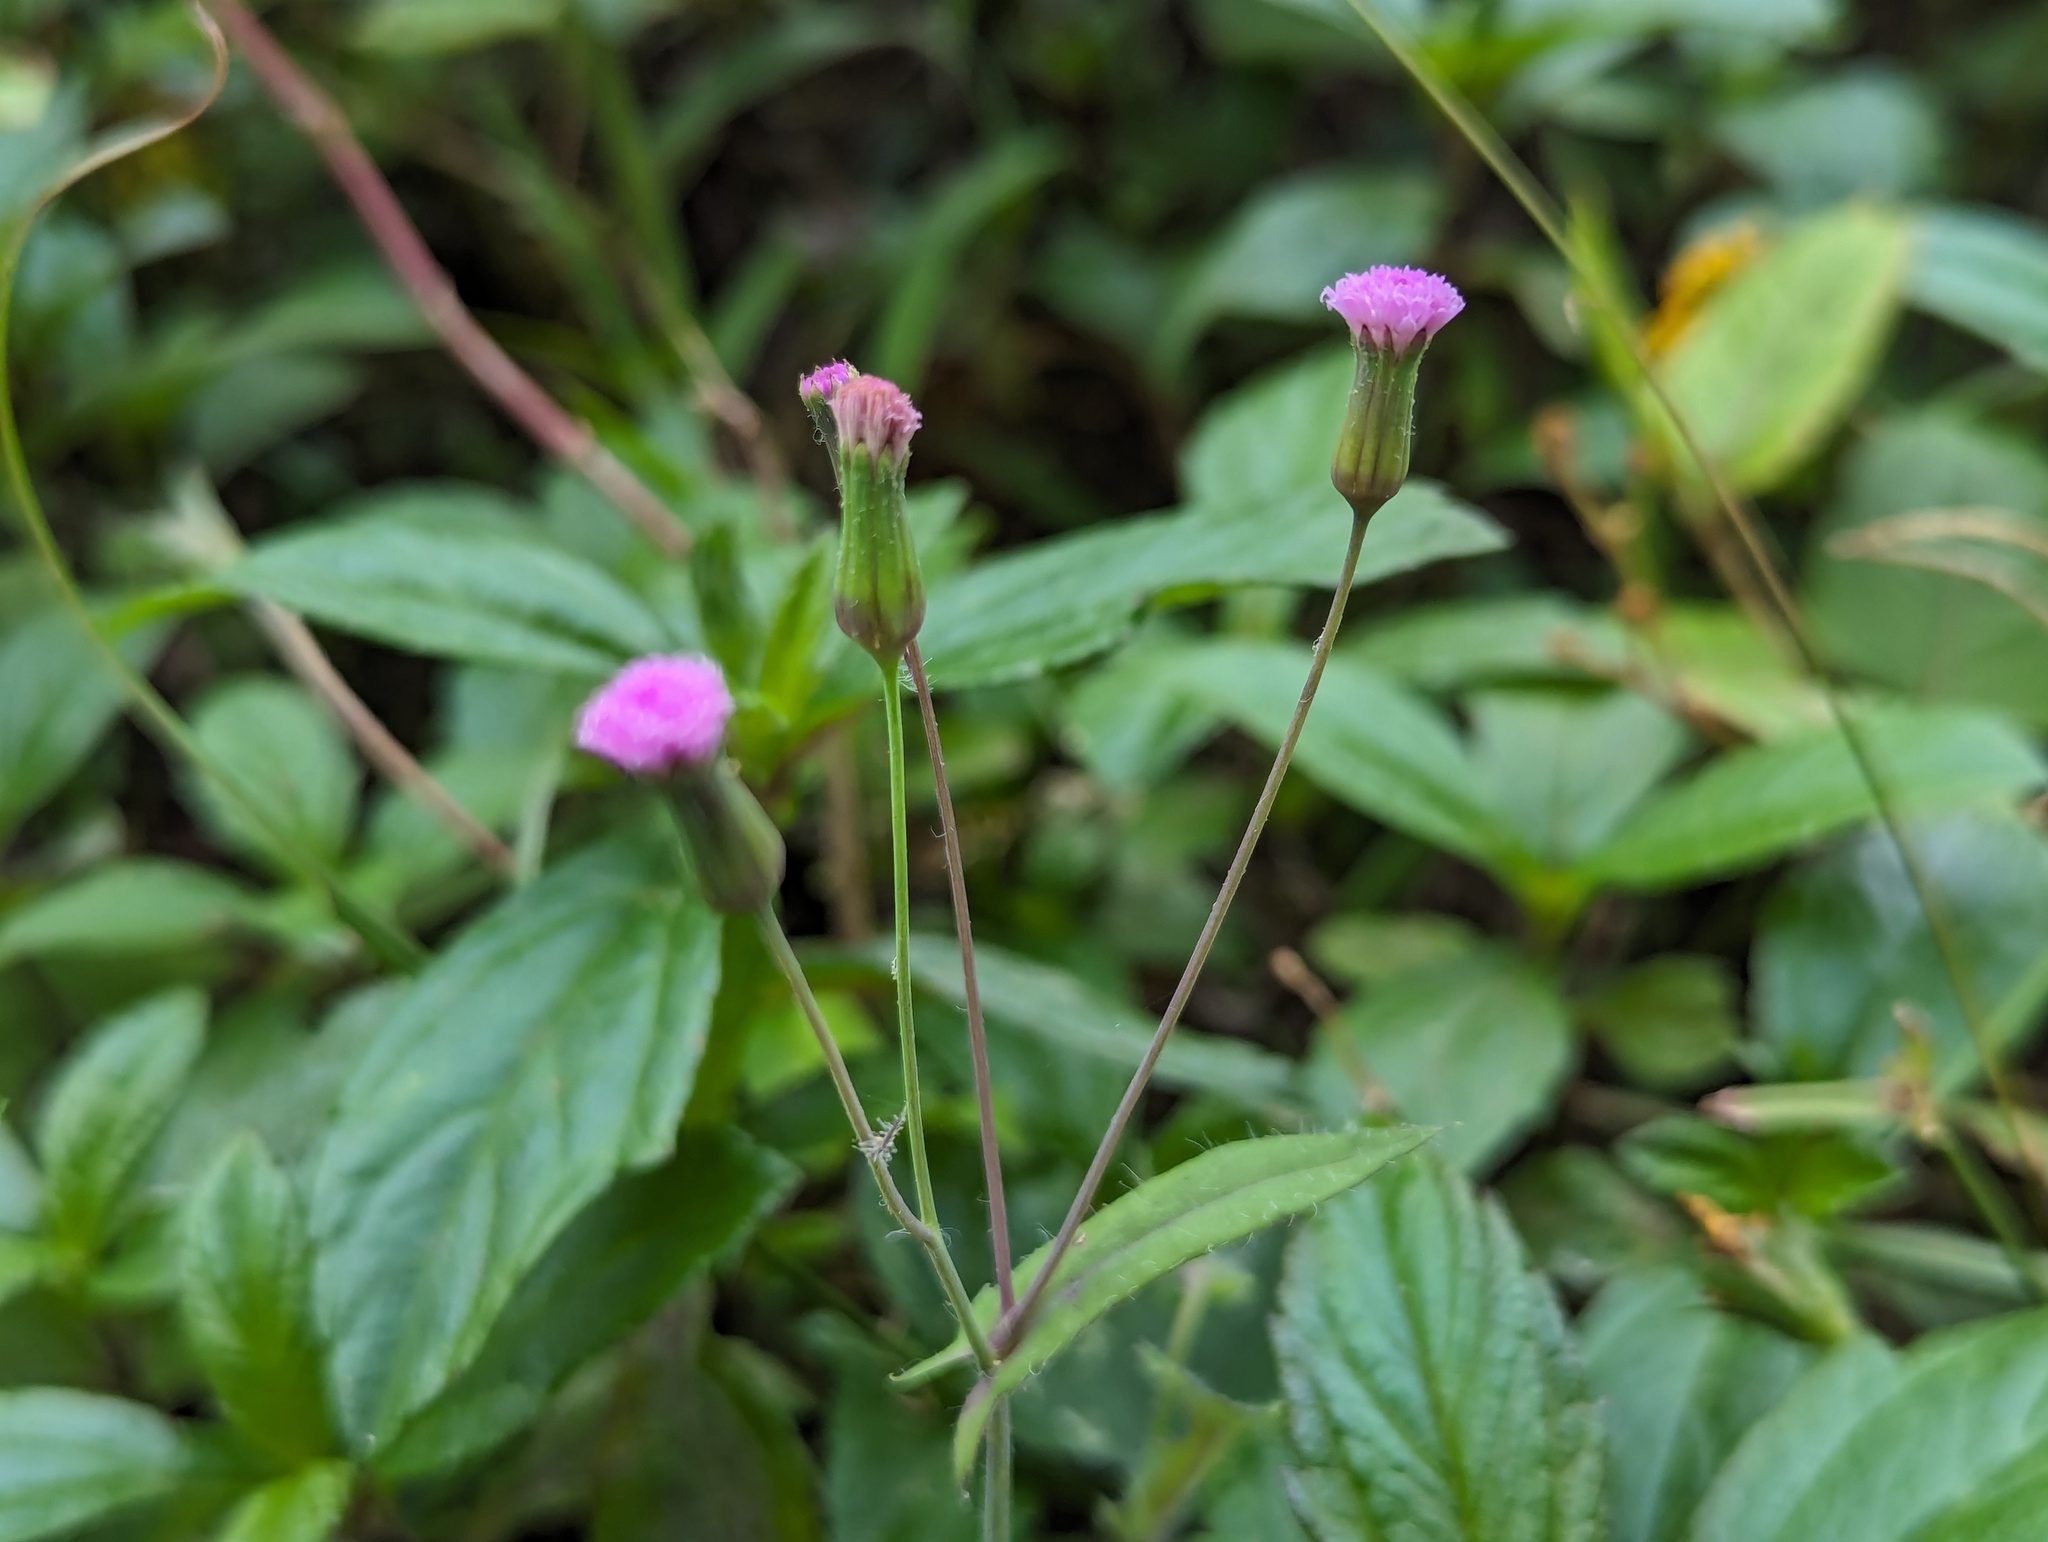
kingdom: Plantae
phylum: Tracheophyta
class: Magnoliopsida
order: Asterales
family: Asteraceae
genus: Emilia
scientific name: Emilia javanica
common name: Tassel-flower
